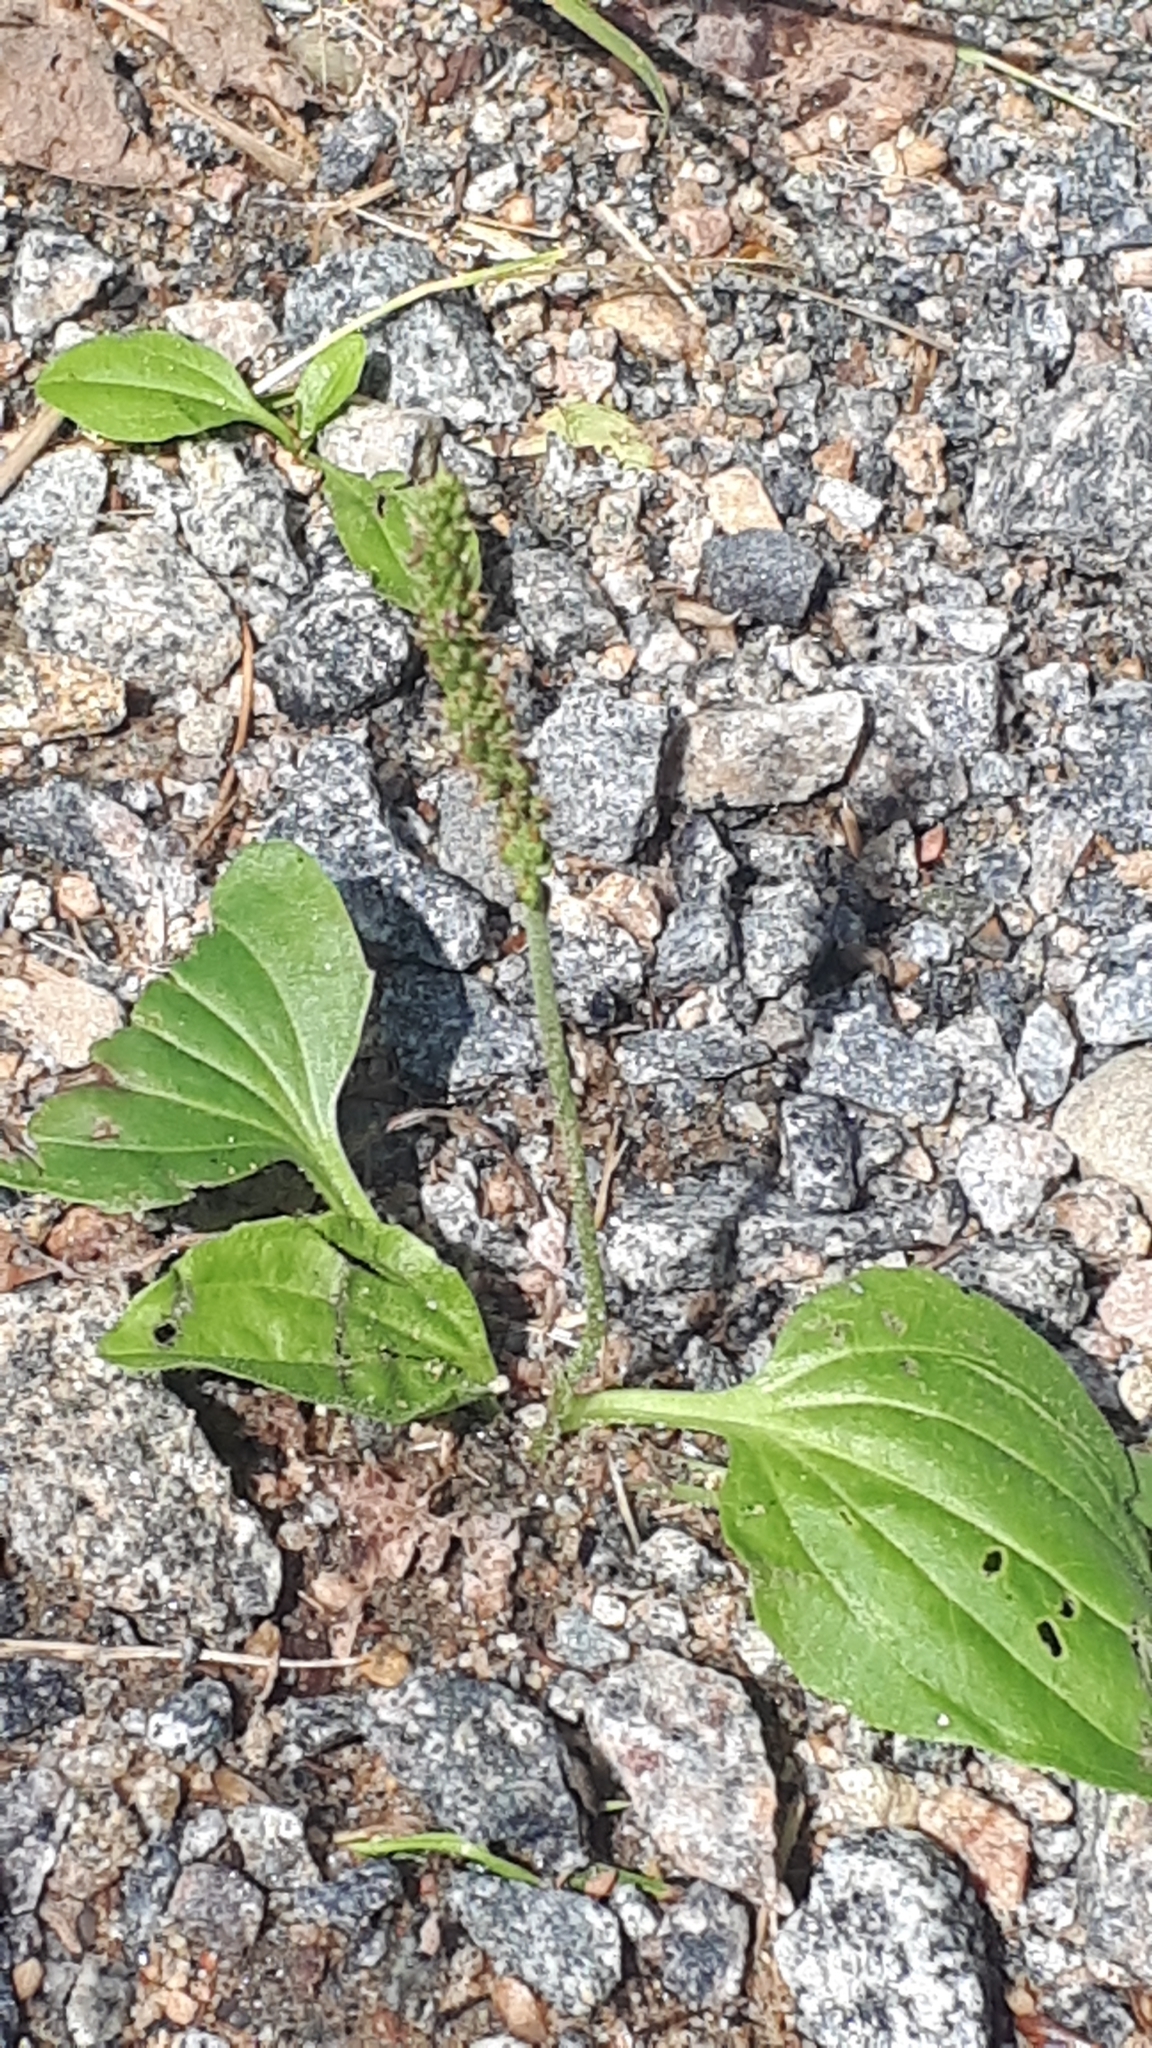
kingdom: Plantae
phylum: Tracheophyta
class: Magnoliopsida
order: Lamiales
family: Plantaginaceae
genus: Plantago
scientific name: Plantago major
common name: Common plantain
